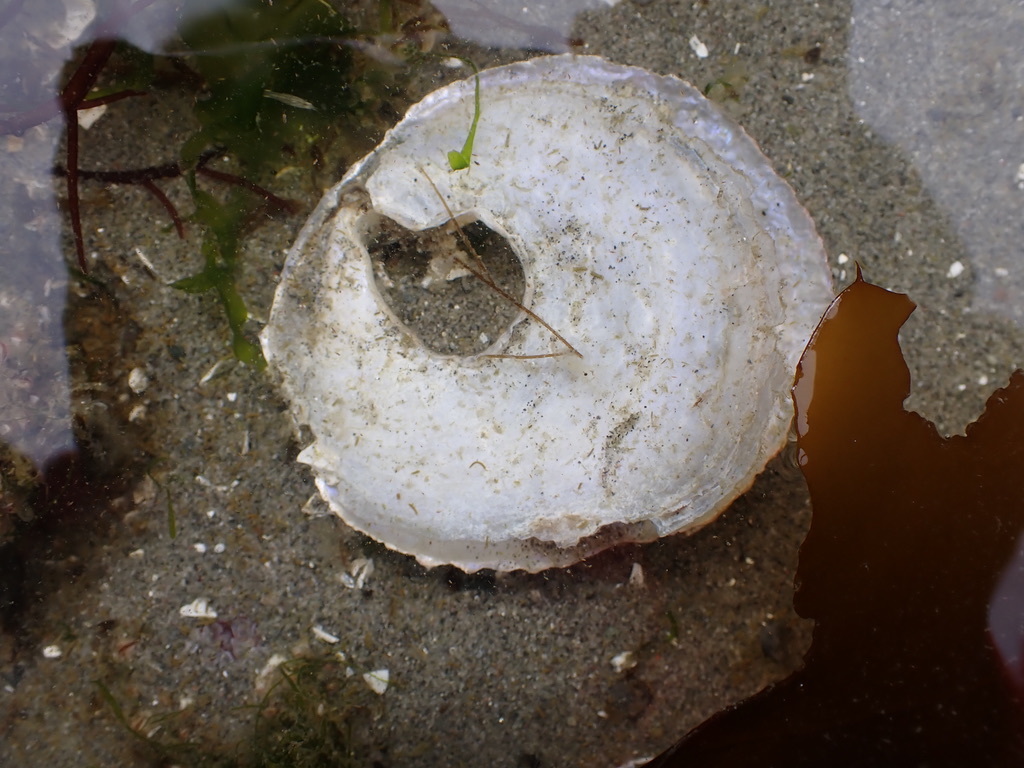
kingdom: Animalia
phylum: Mollusca
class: Bivalvia
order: Pectinida
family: Anomiidae
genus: Pododesmus
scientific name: Pododesmus macrochisma
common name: Alaska jingle
